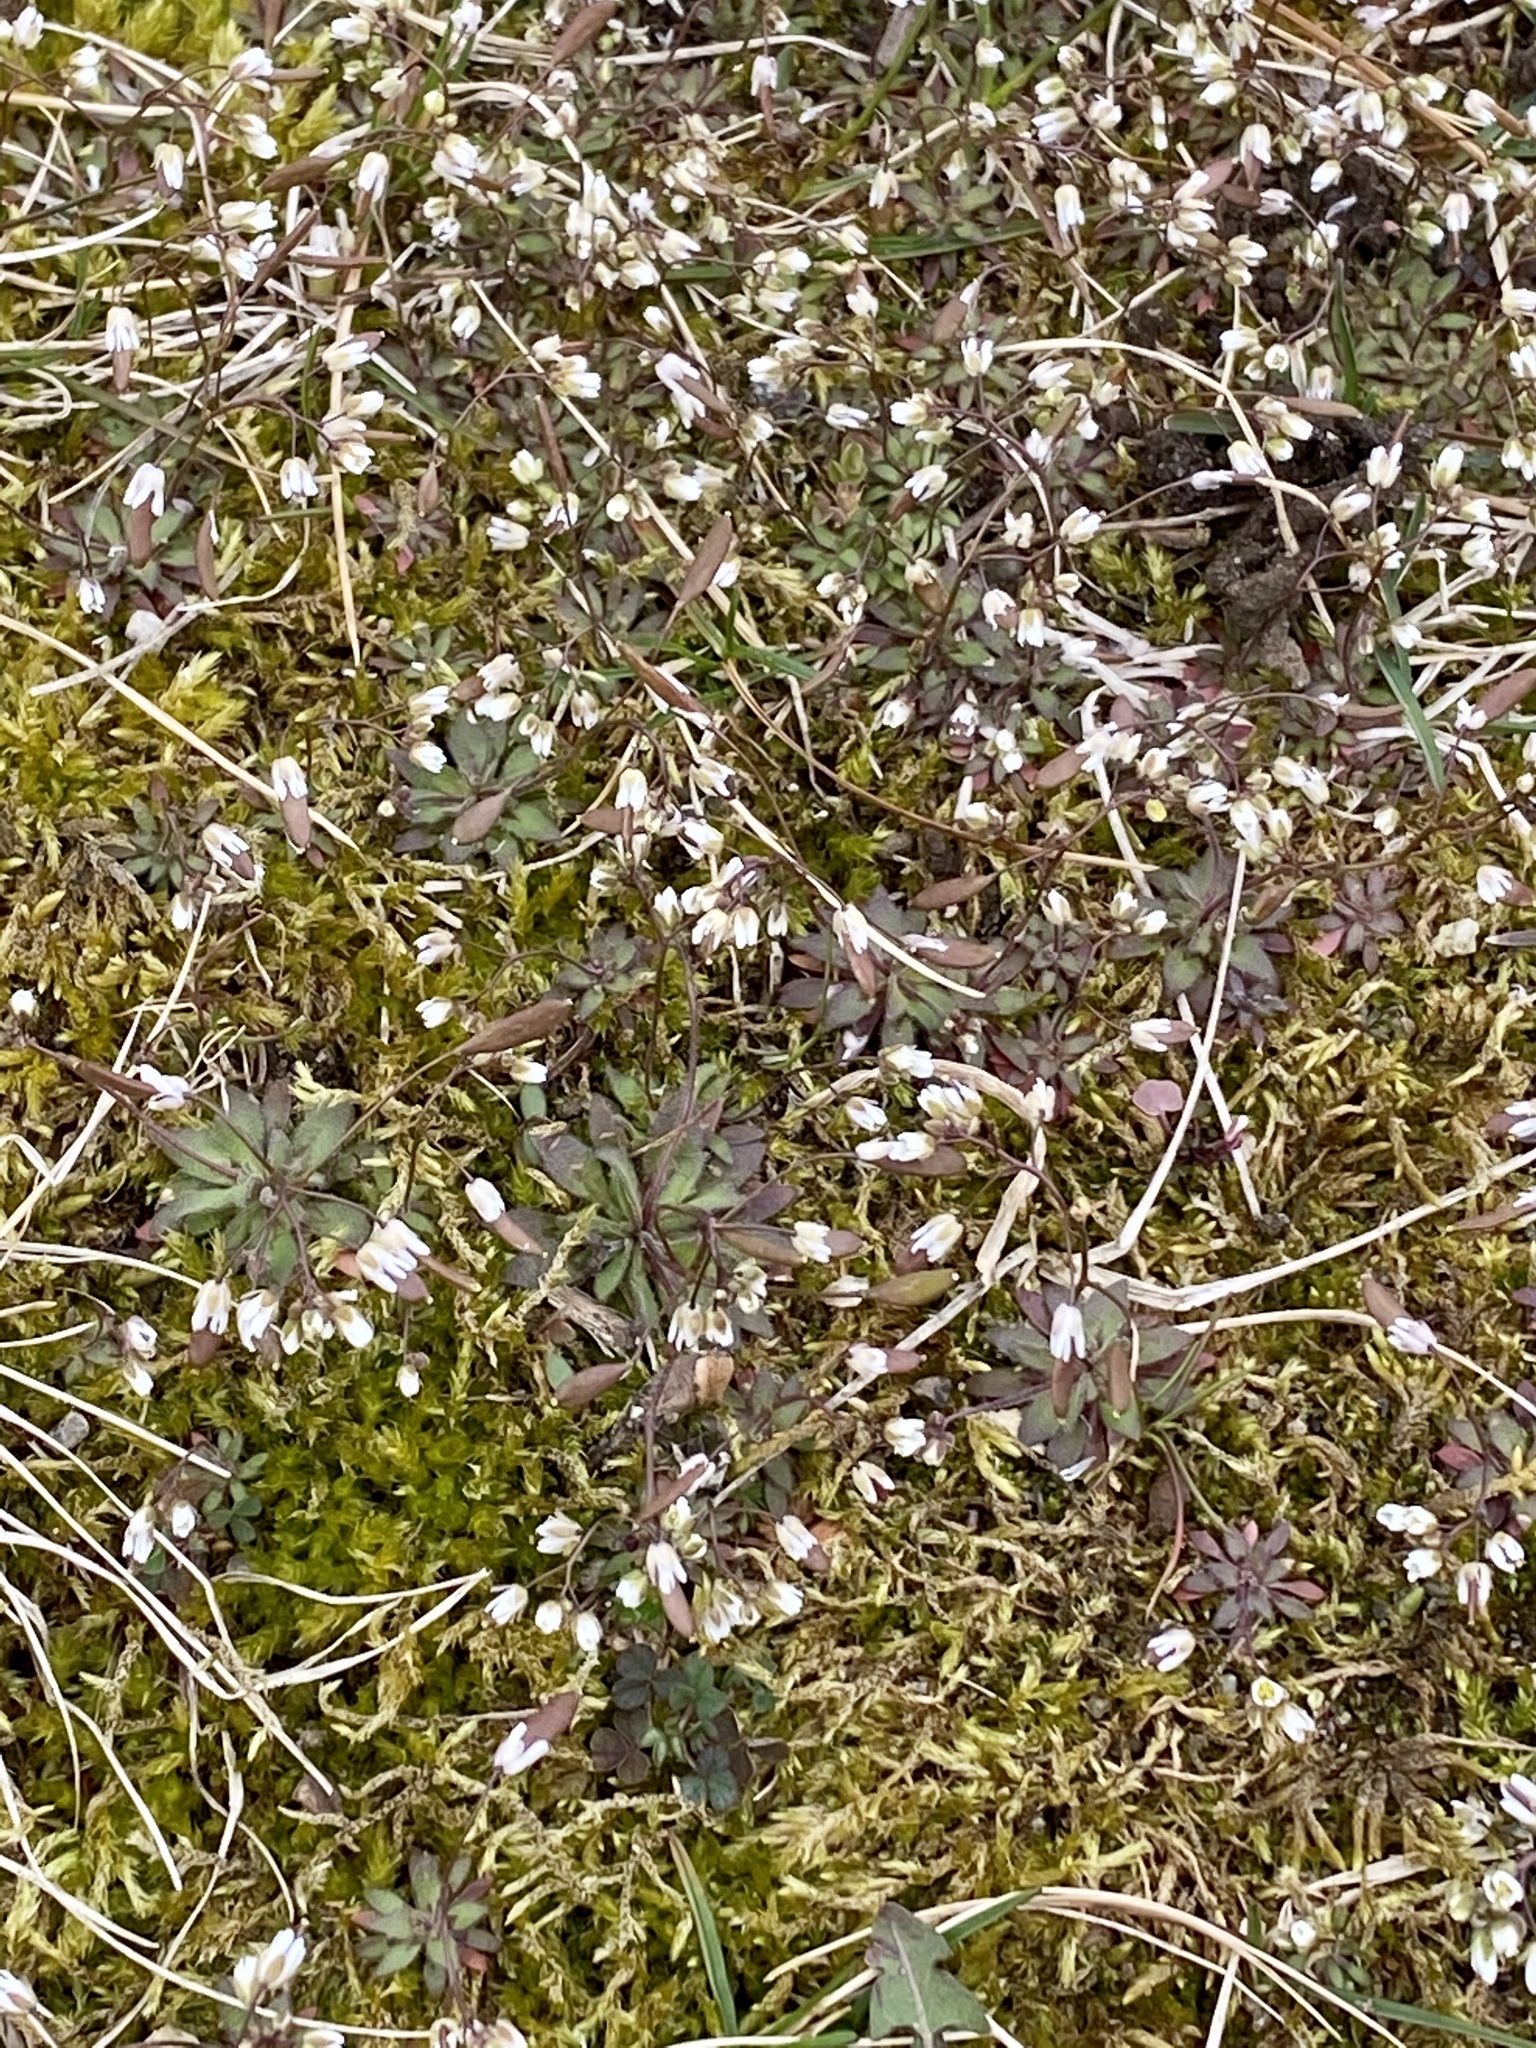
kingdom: Plantae
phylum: Tracheophyta
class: Magnoliopsida
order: Brassicales
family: Brassicaceae
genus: Draba
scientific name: Draba verna
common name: Spring draba
